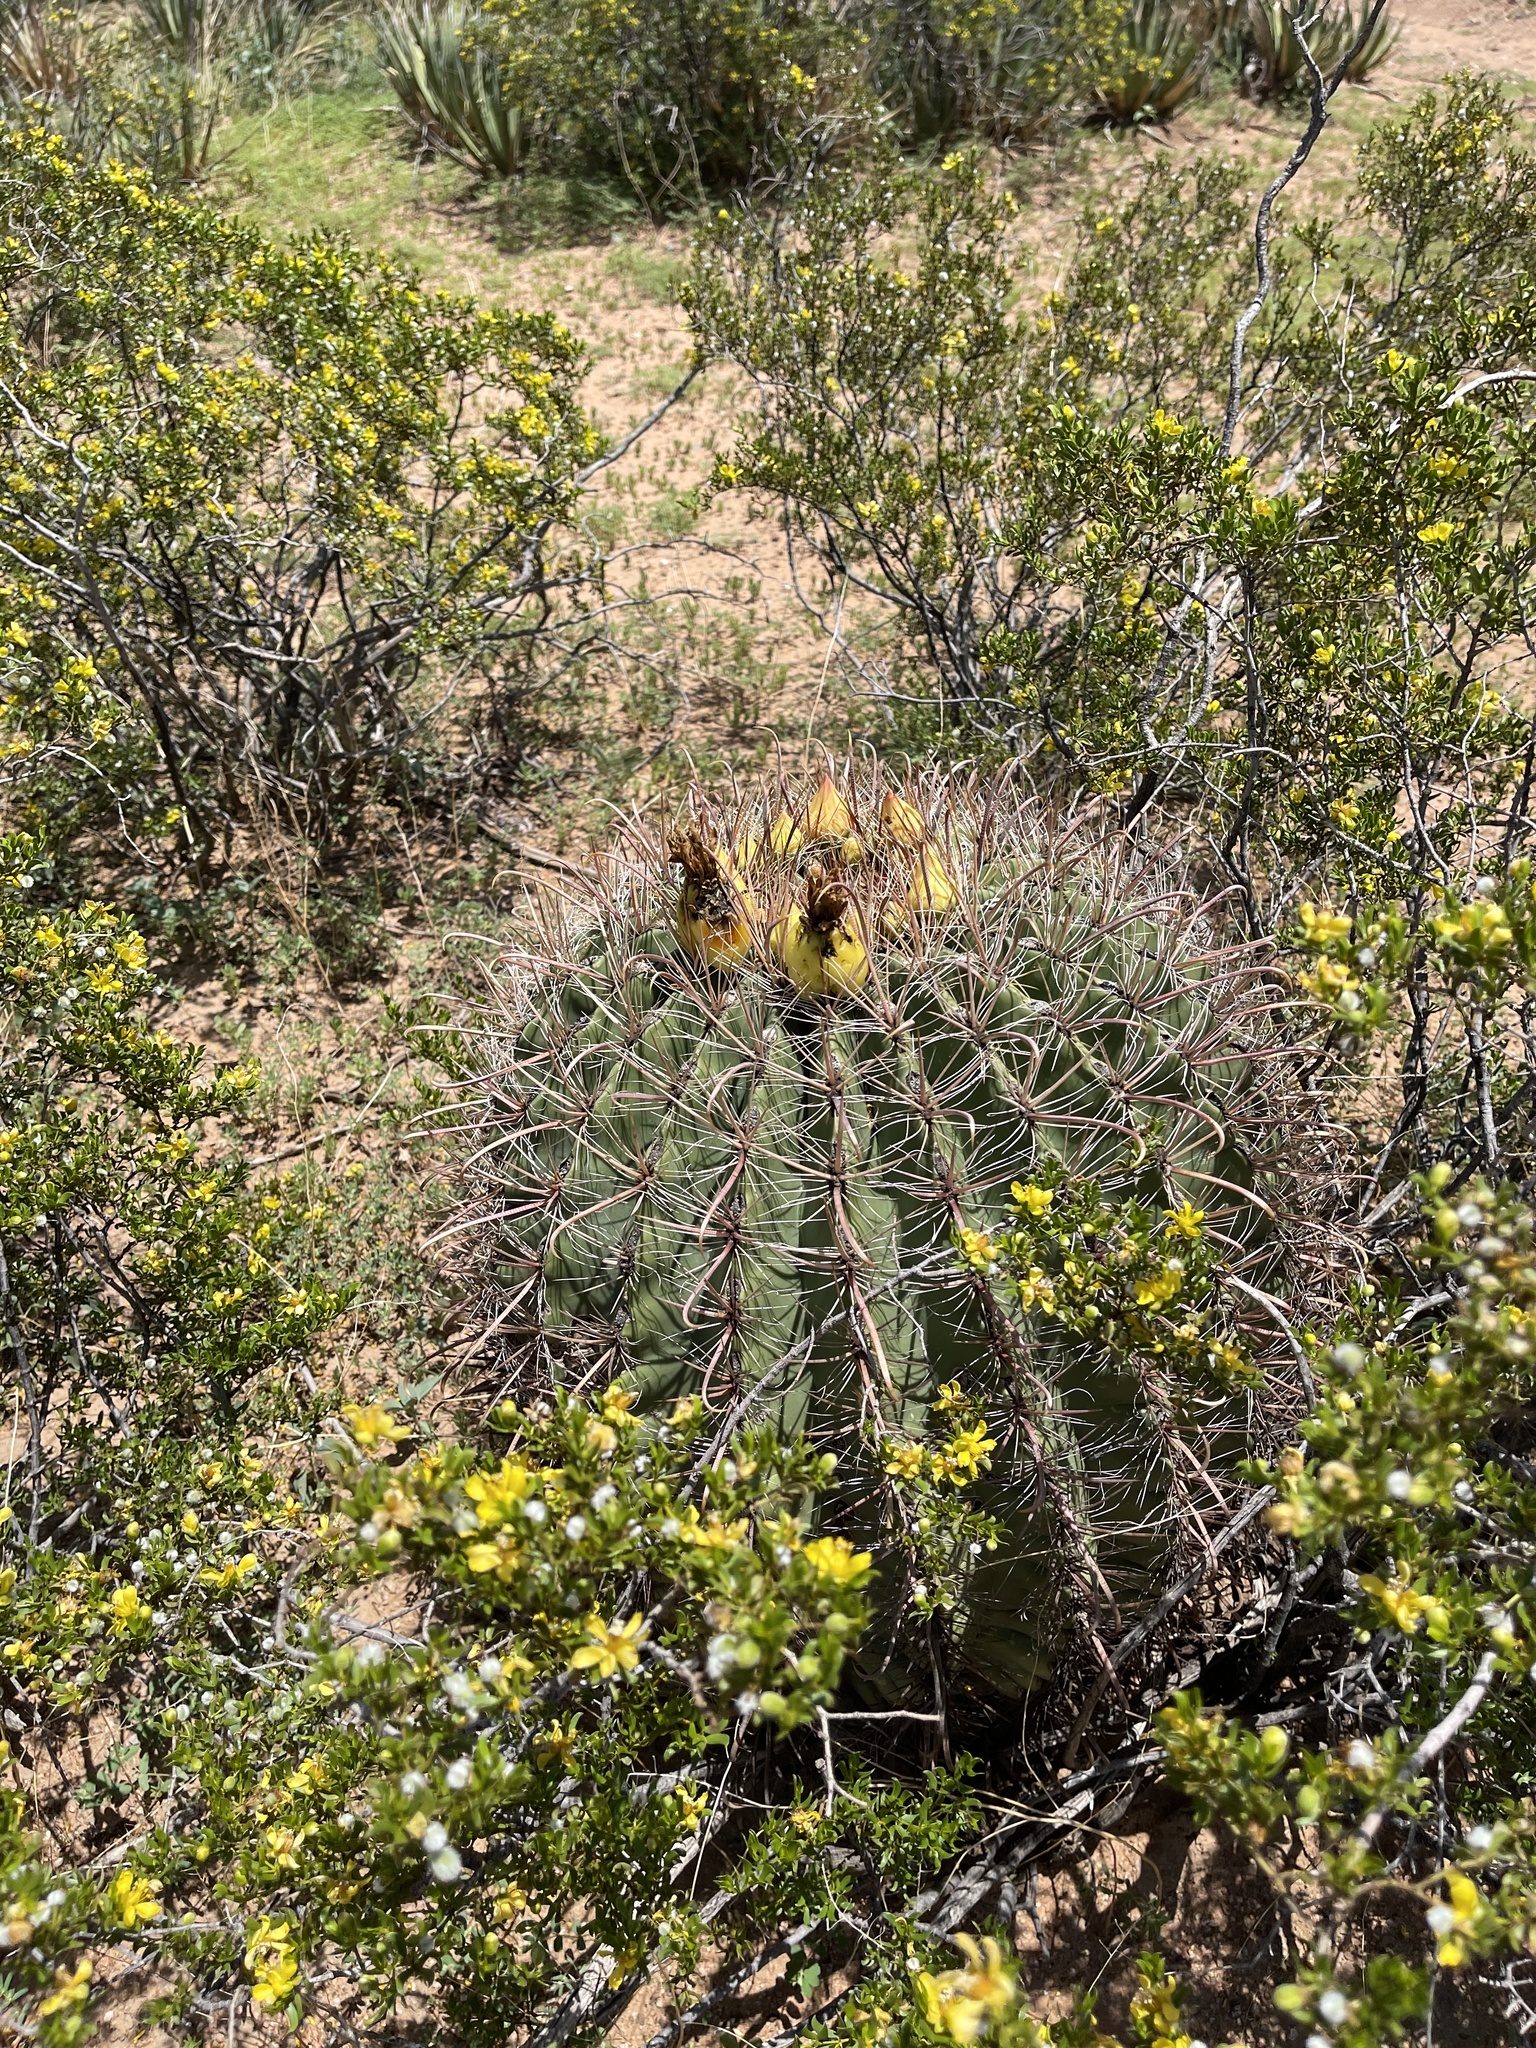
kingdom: Plantae
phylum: Tracheophyta
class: Magnoliopsida
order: Caryophyllales
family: Cactaceae
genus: Ferocactus
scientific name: Ferocactus wislizeni
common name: Candy barrel cactus
